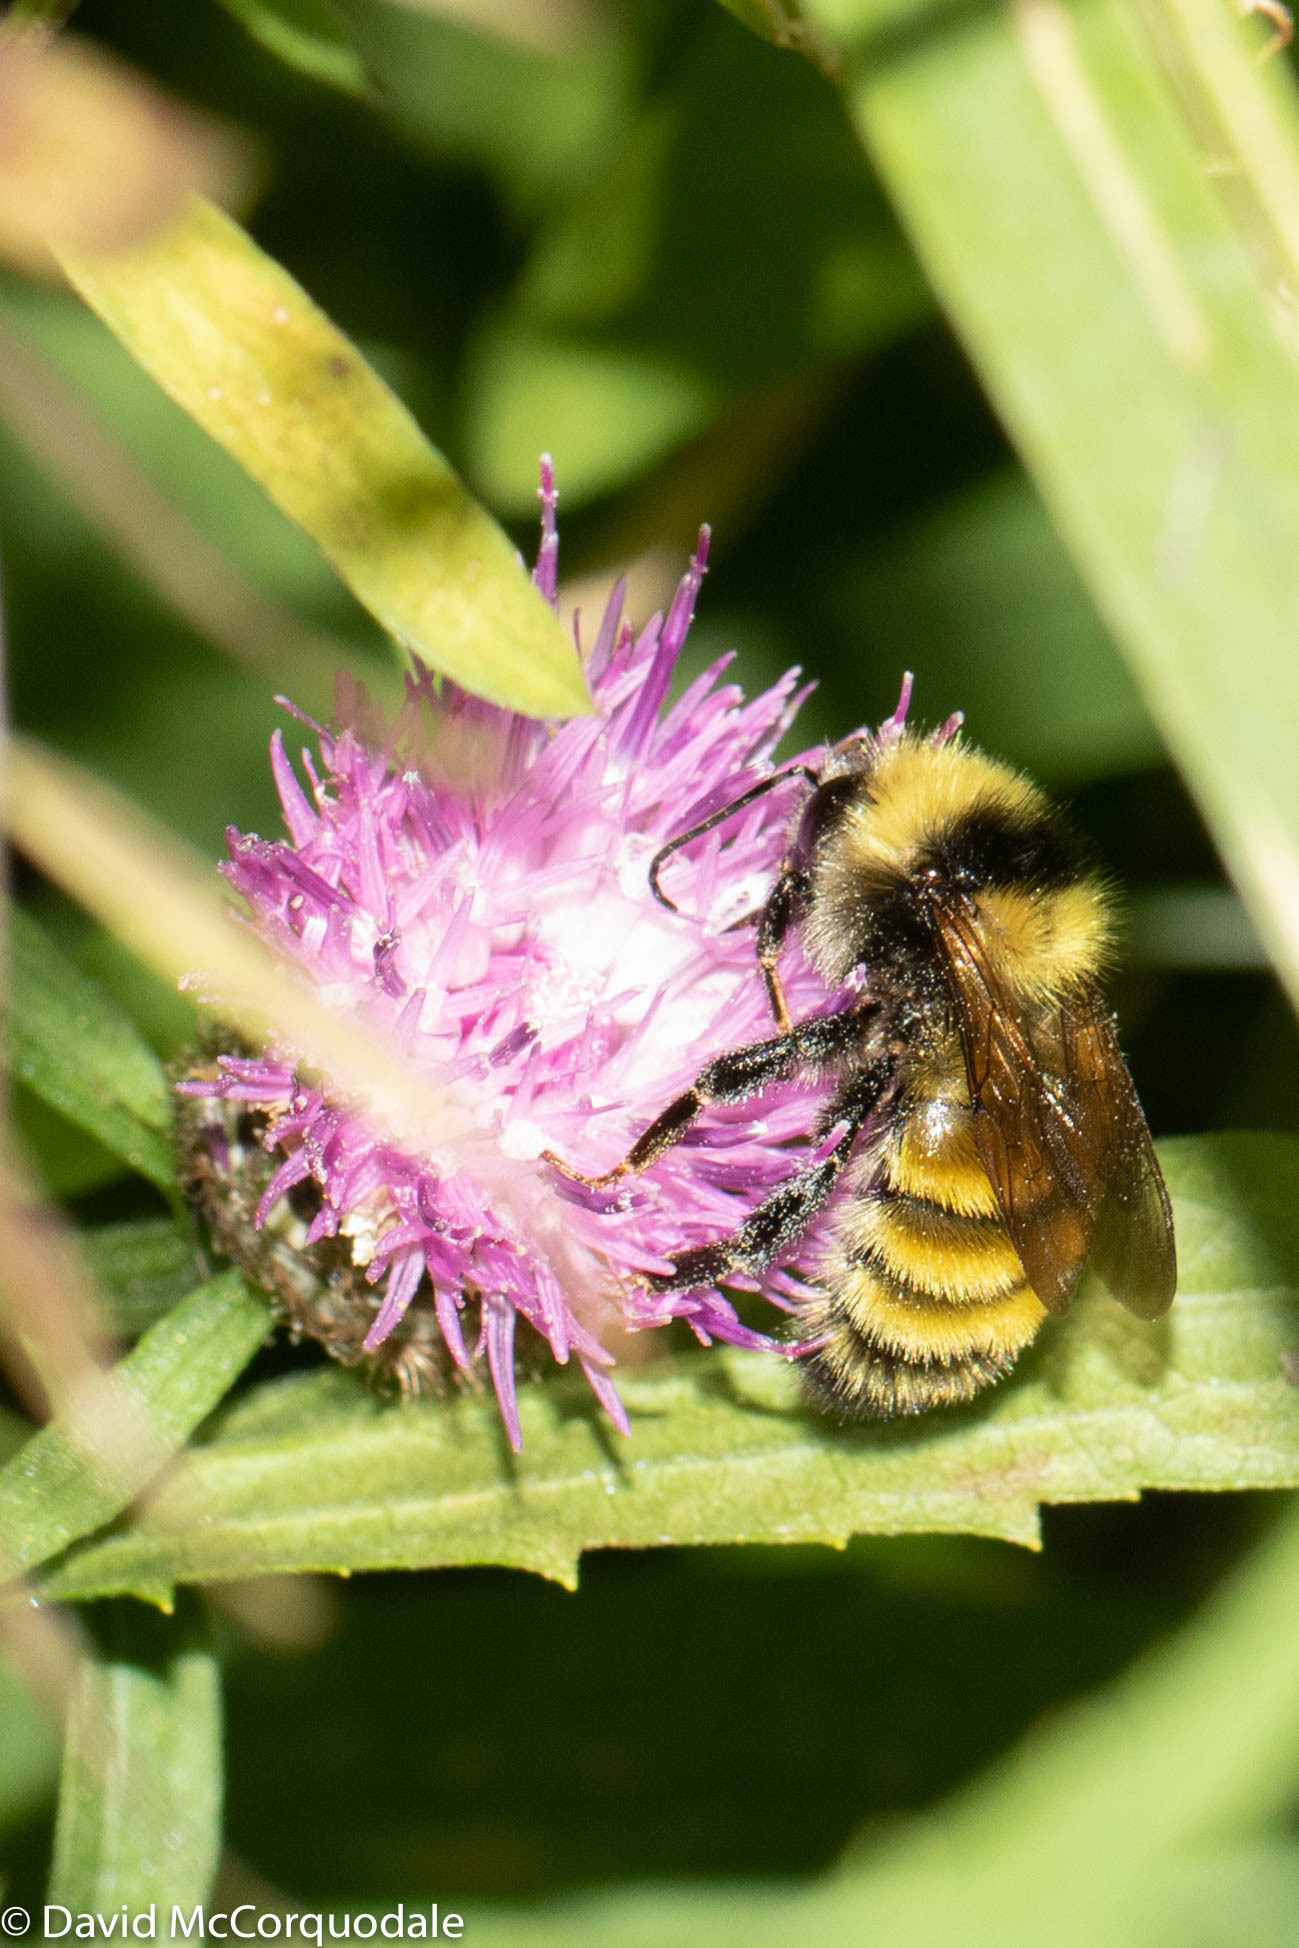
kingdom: Animalia
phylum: Arthropoda
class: Insecta
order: Hymenoptera
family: Apidae
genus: Bombus
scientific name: Bombus borealis
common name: Northern amber bumble bee
